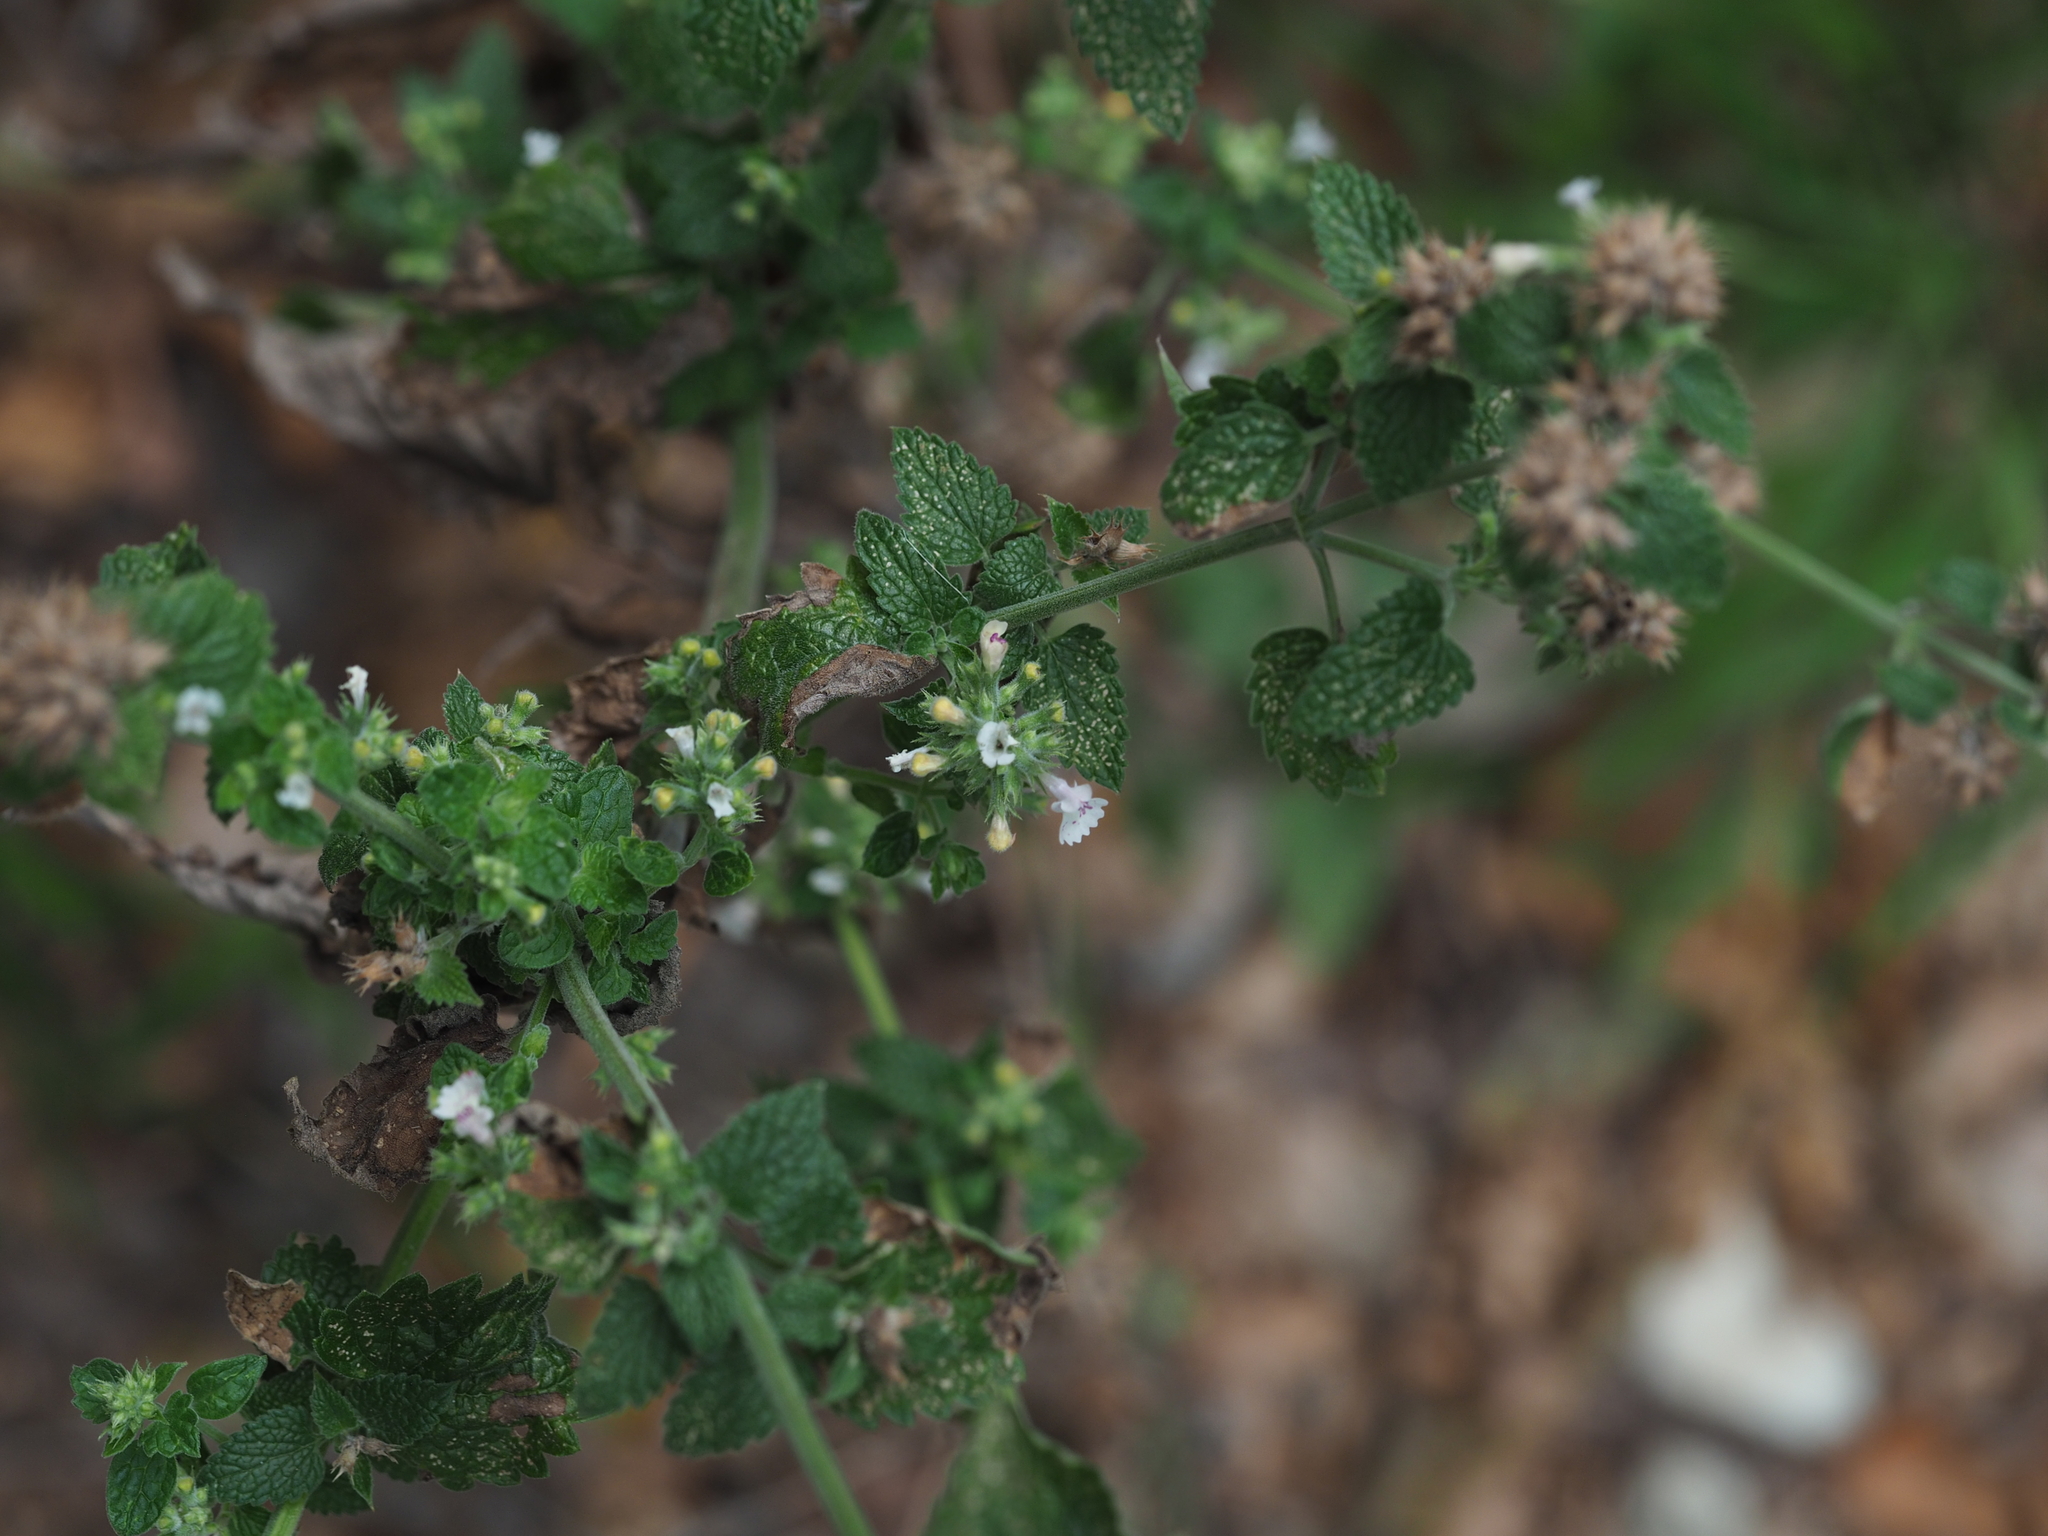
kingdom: Plantae
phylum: Tracheophyta
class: Magnoliopsida
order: Lamiales
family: Lamiaceae
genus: Nepeta
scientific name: Nepeta cataria
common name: Catnip
